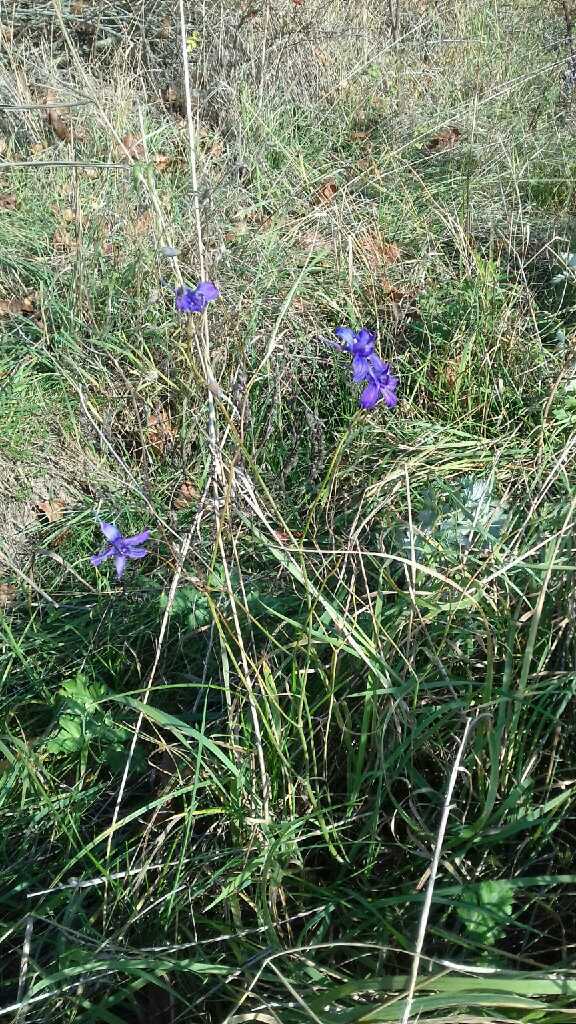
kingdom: Plantae
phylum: Tracheophyta
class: Magnoliopsida
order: Ranunculales
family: Ranunculaceae
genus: Delphinium
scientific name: Delphinium consolida
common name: Branching larkspur
